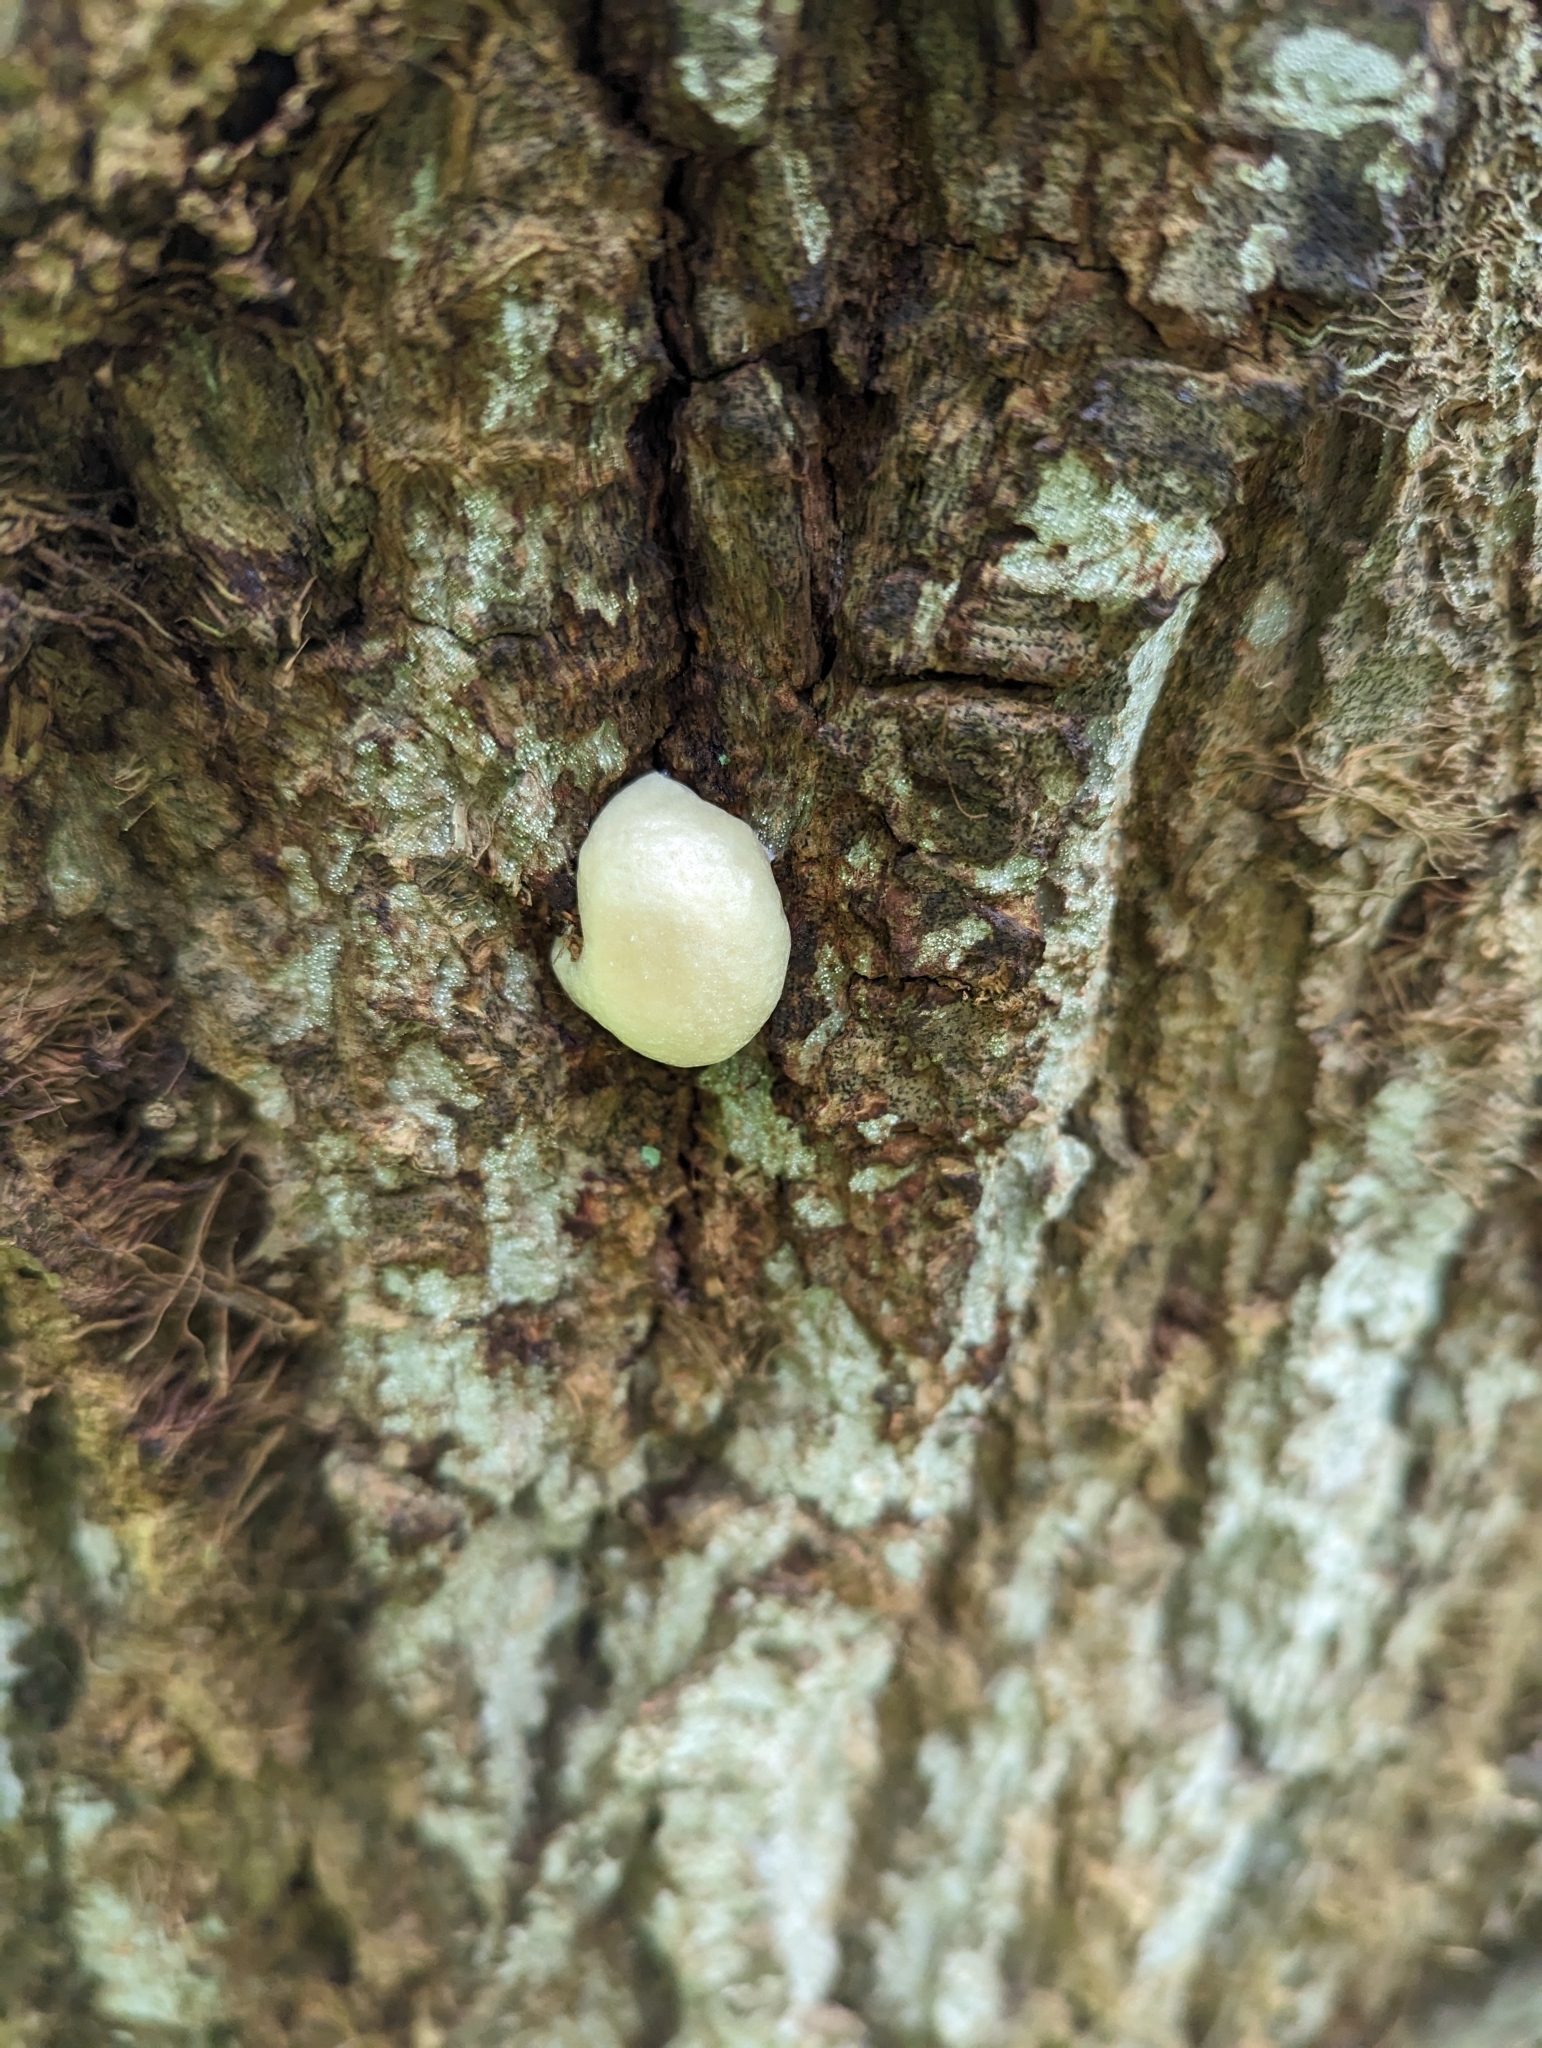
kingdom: Protozoa
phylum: Mycetozoa
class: Myxomycetes
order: Cribrariales
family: Tubiferaceae
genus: Reticularia
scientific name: Reticularia lycoperdon
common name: False puffball
